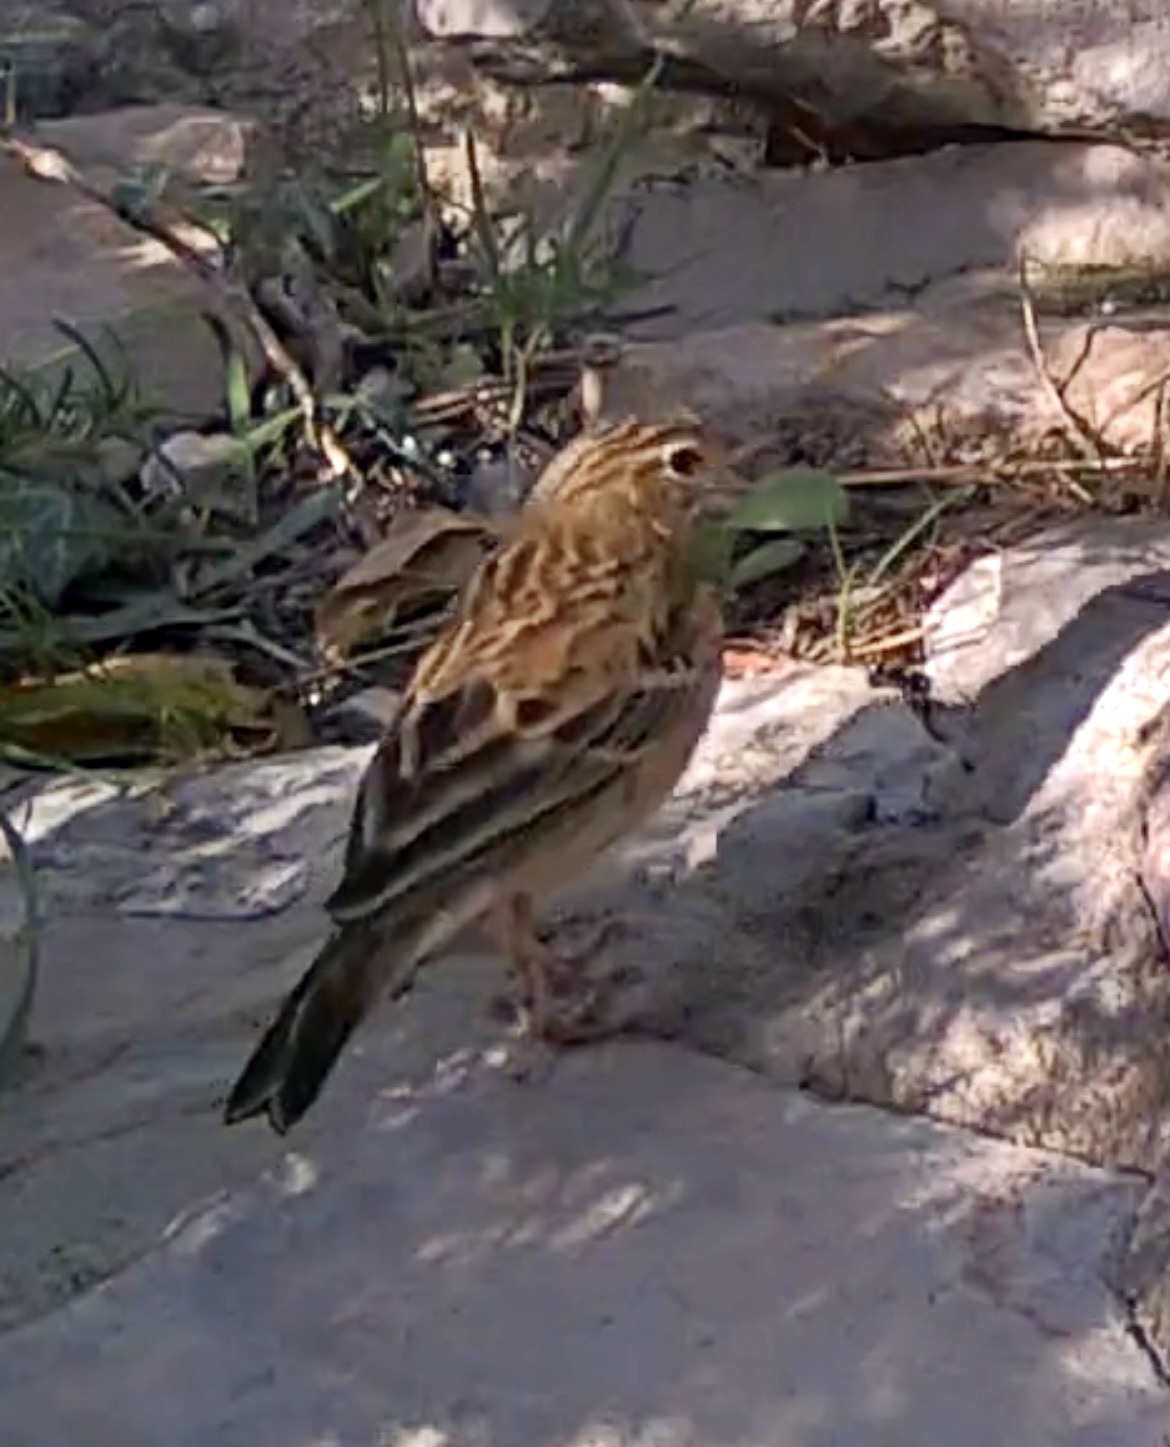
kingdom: Animalia
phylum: Chordata
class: Aves
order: Passeriformes
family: Motacillidae
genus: Anthus
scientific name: Anthus trivialis
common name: Tree pipit
